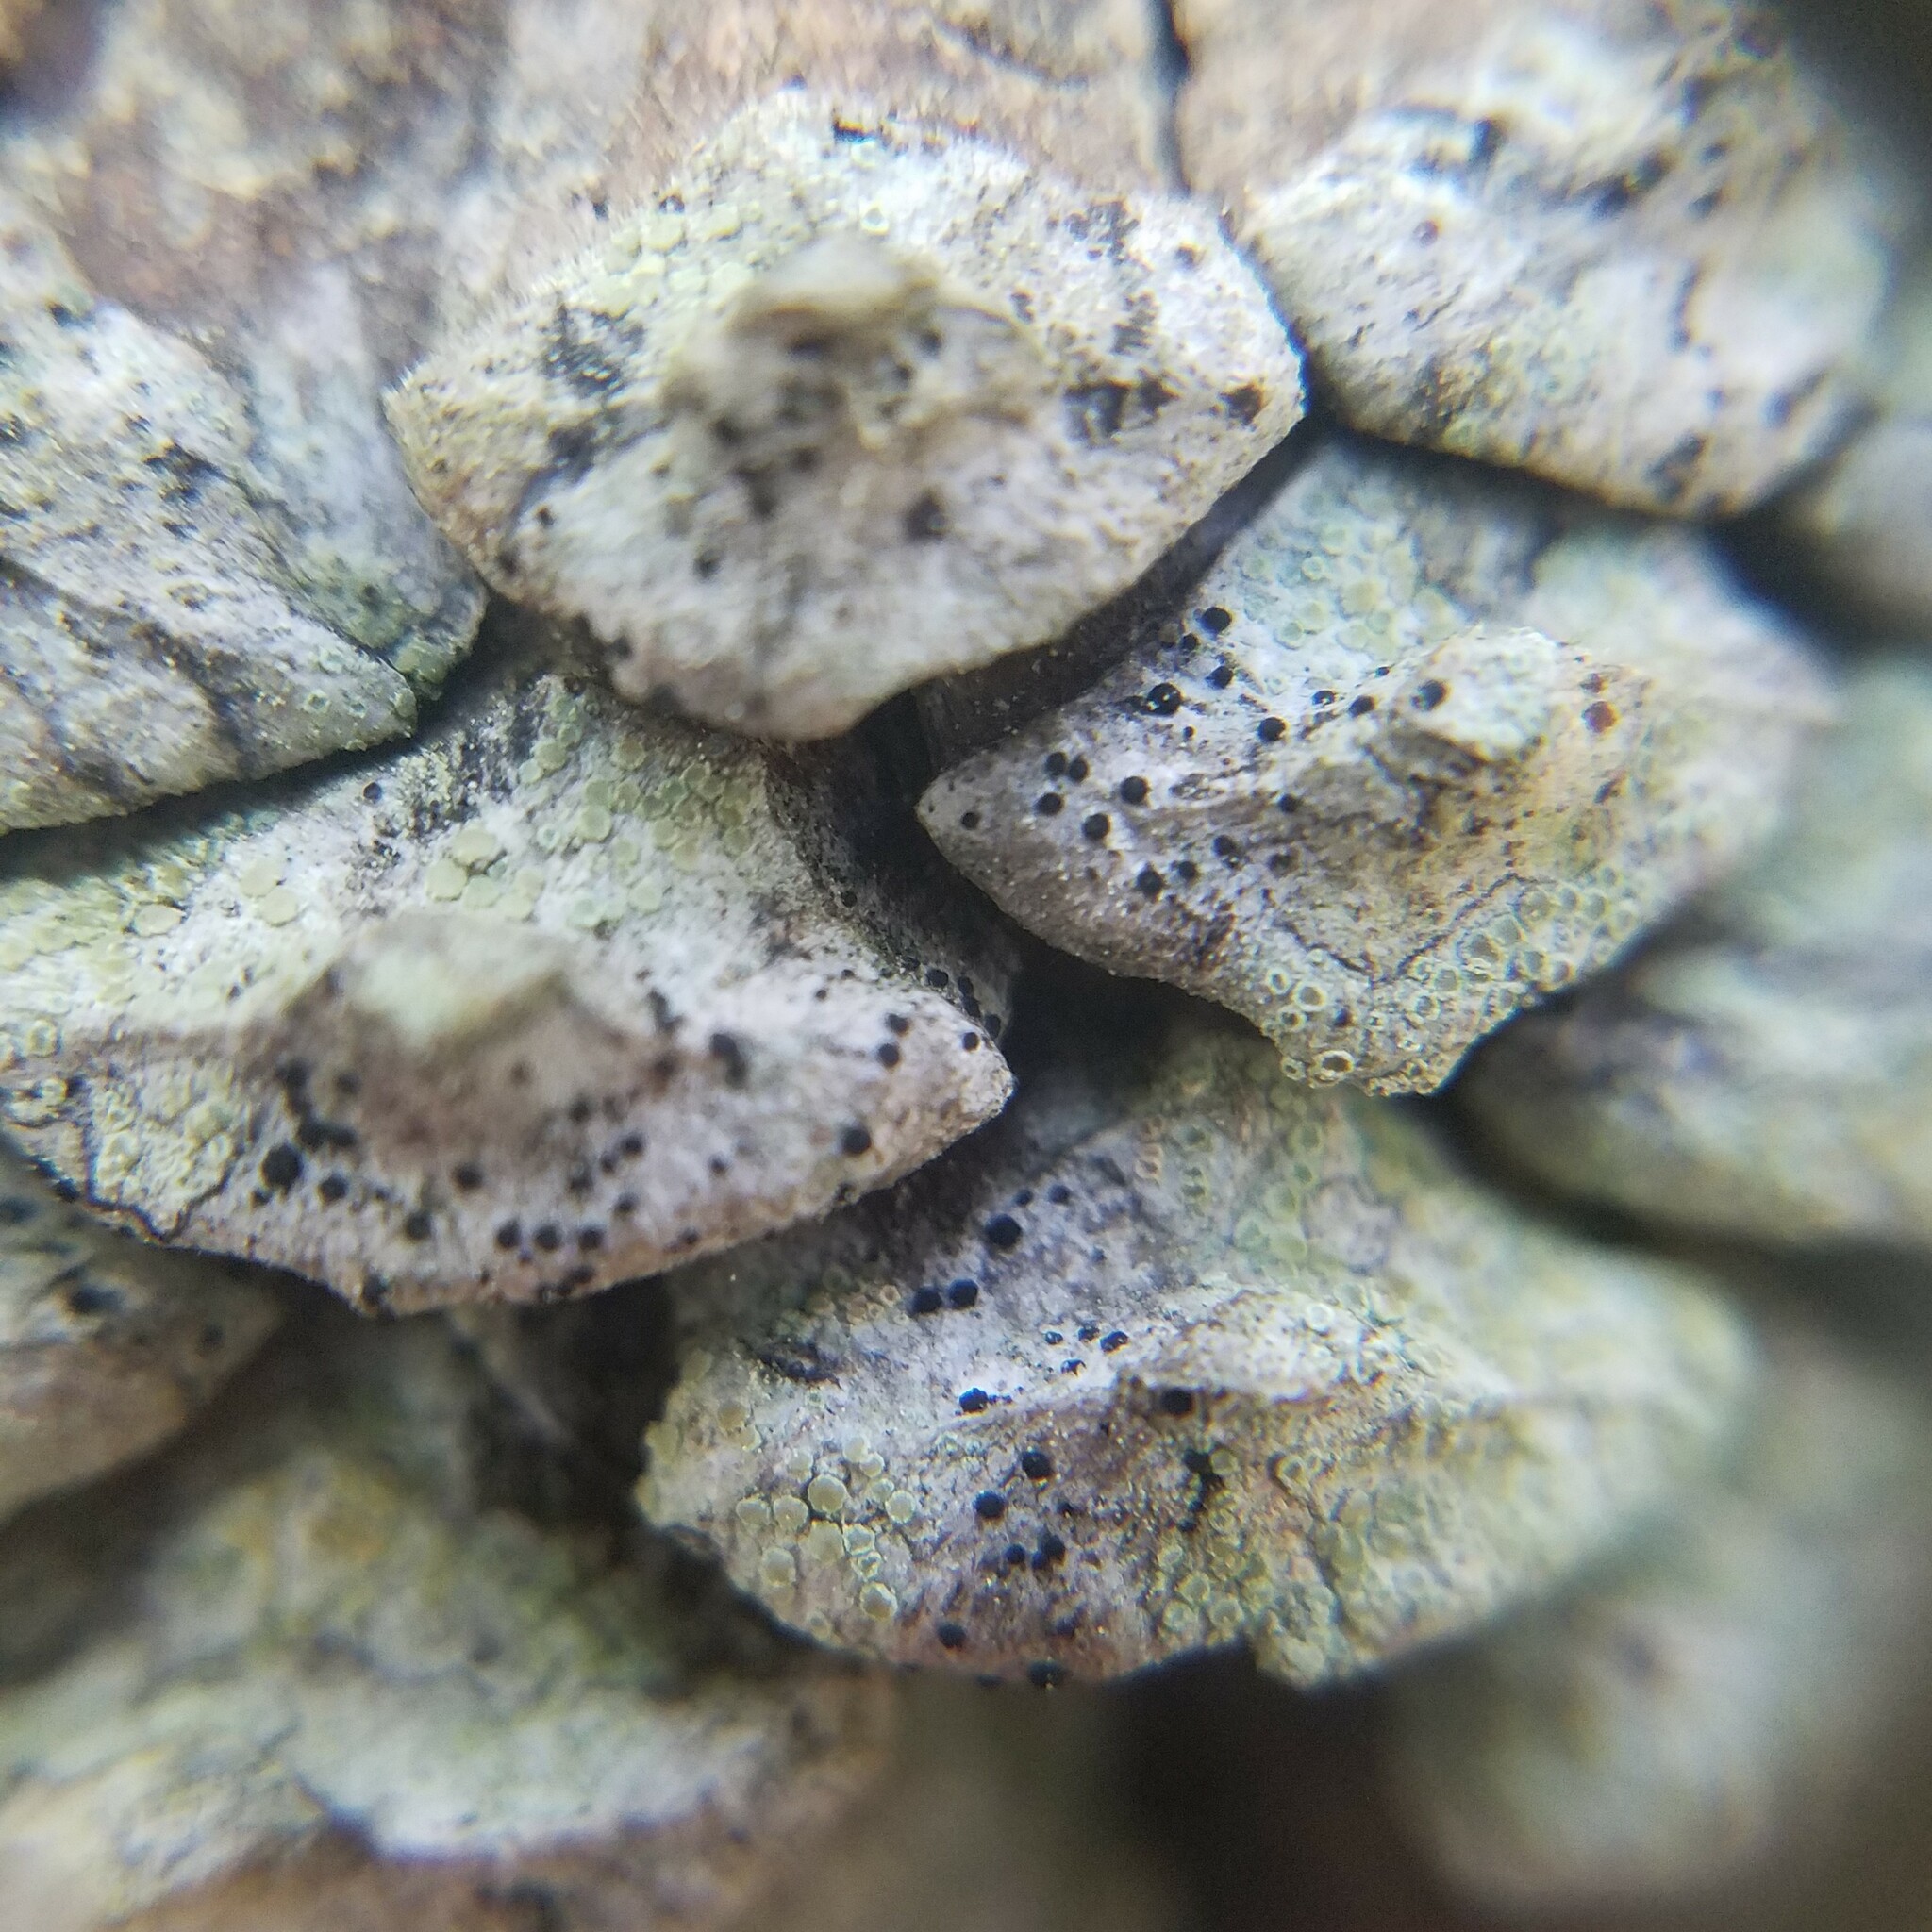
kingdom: Fungi
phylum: Ascomycota
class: Lecanoromycetes
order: Caliciales
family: Caliciaceae
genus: Amandinea
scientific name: Amandinea punctata
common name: Tiny button lichen
